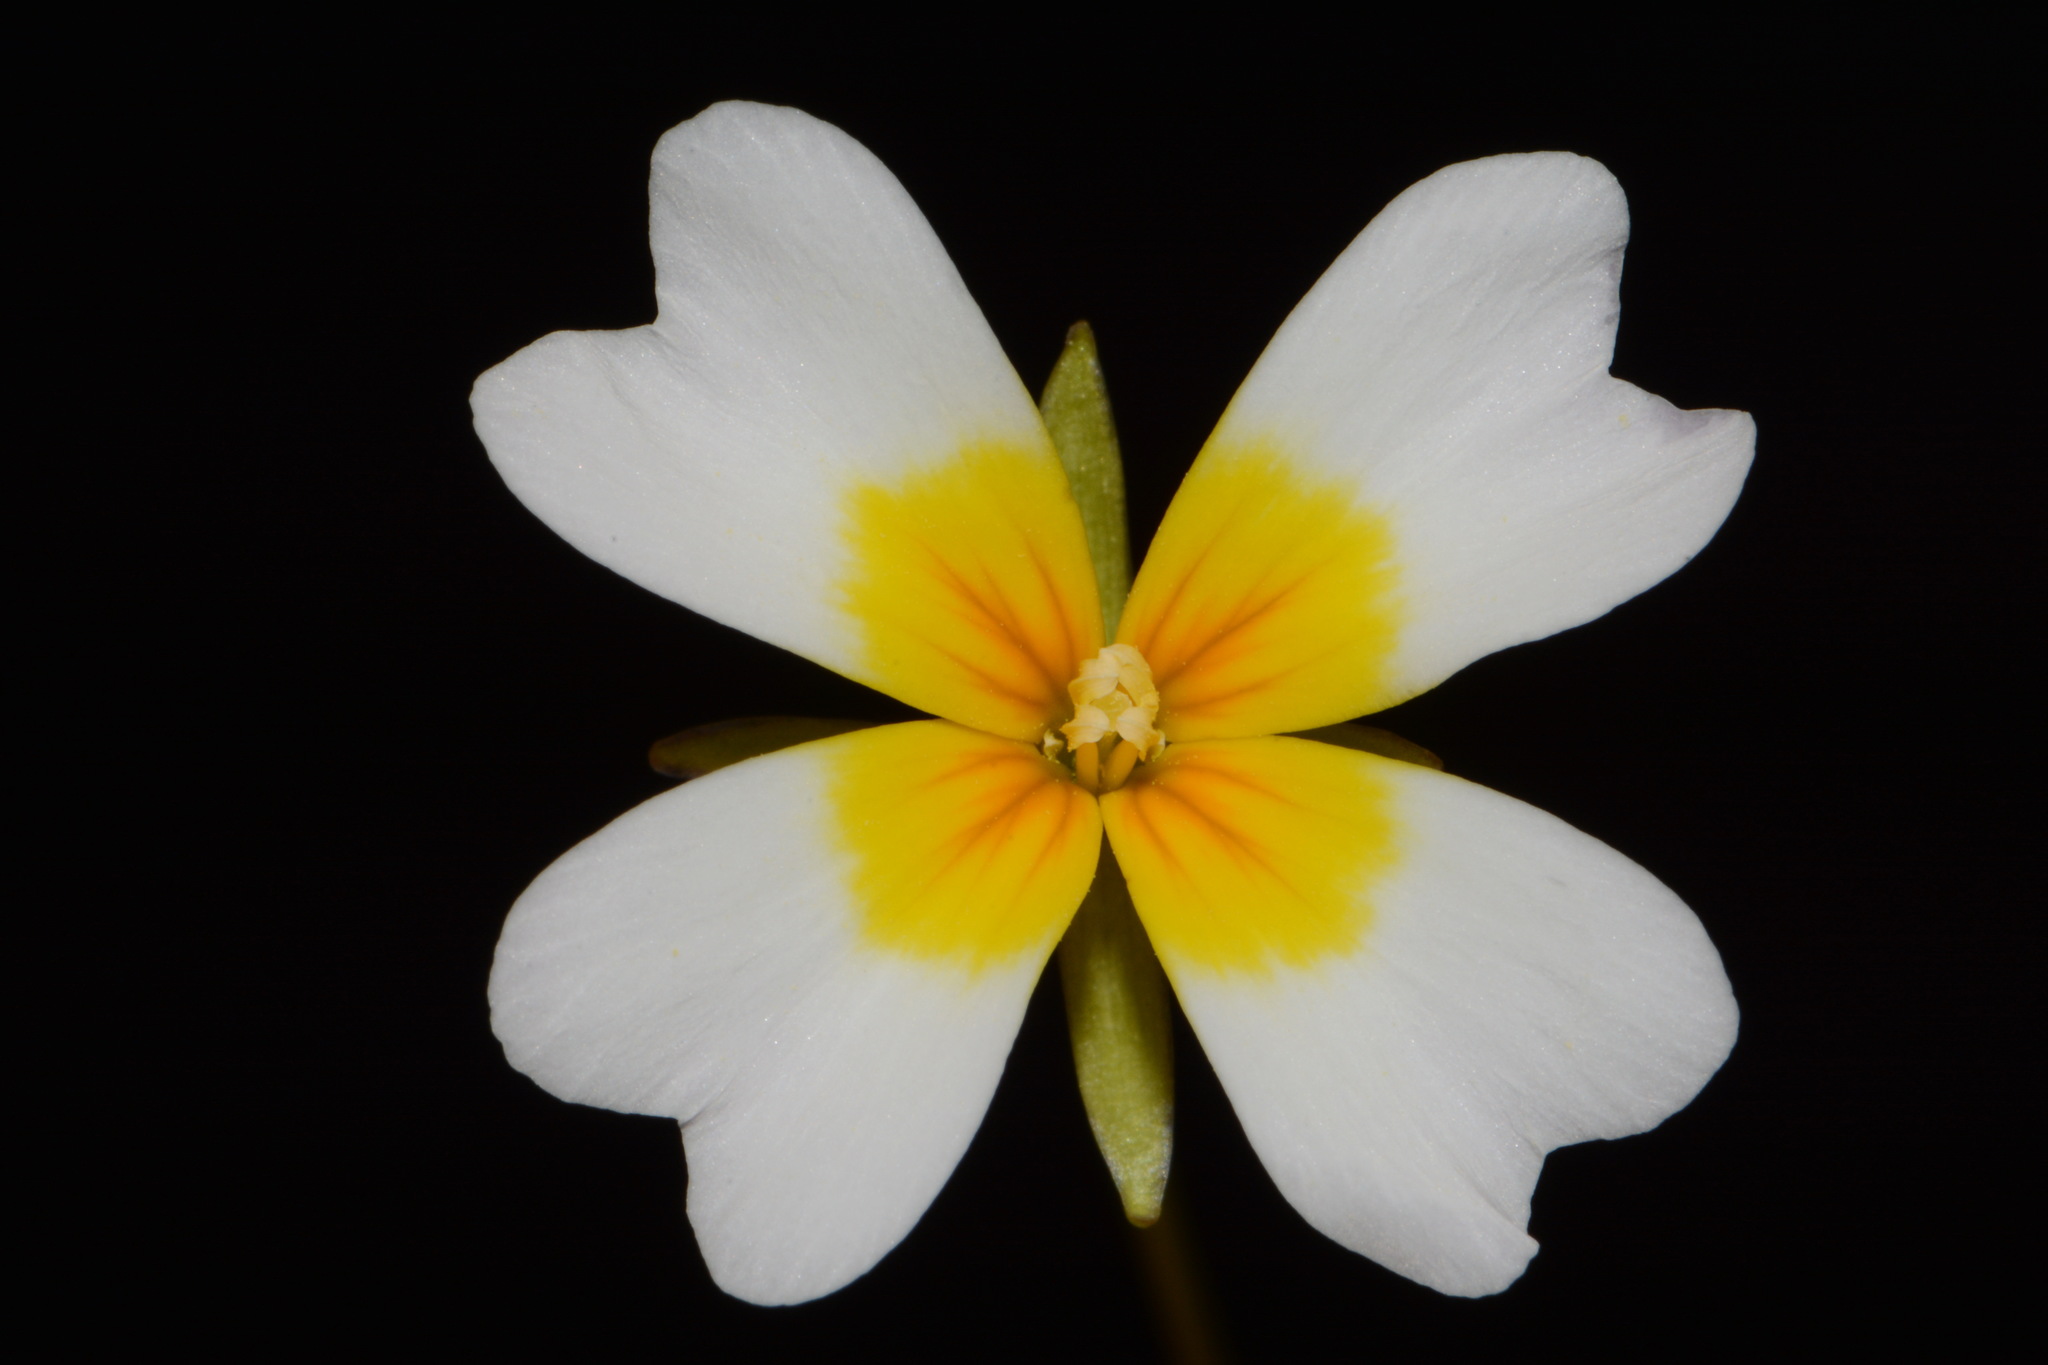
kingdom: Plantae
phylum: Tracheophyta
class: Magnoliopsida
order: Brassicales
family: Brassicaceae
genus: Leavenworthia
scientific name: Leavenworthia alabamica
